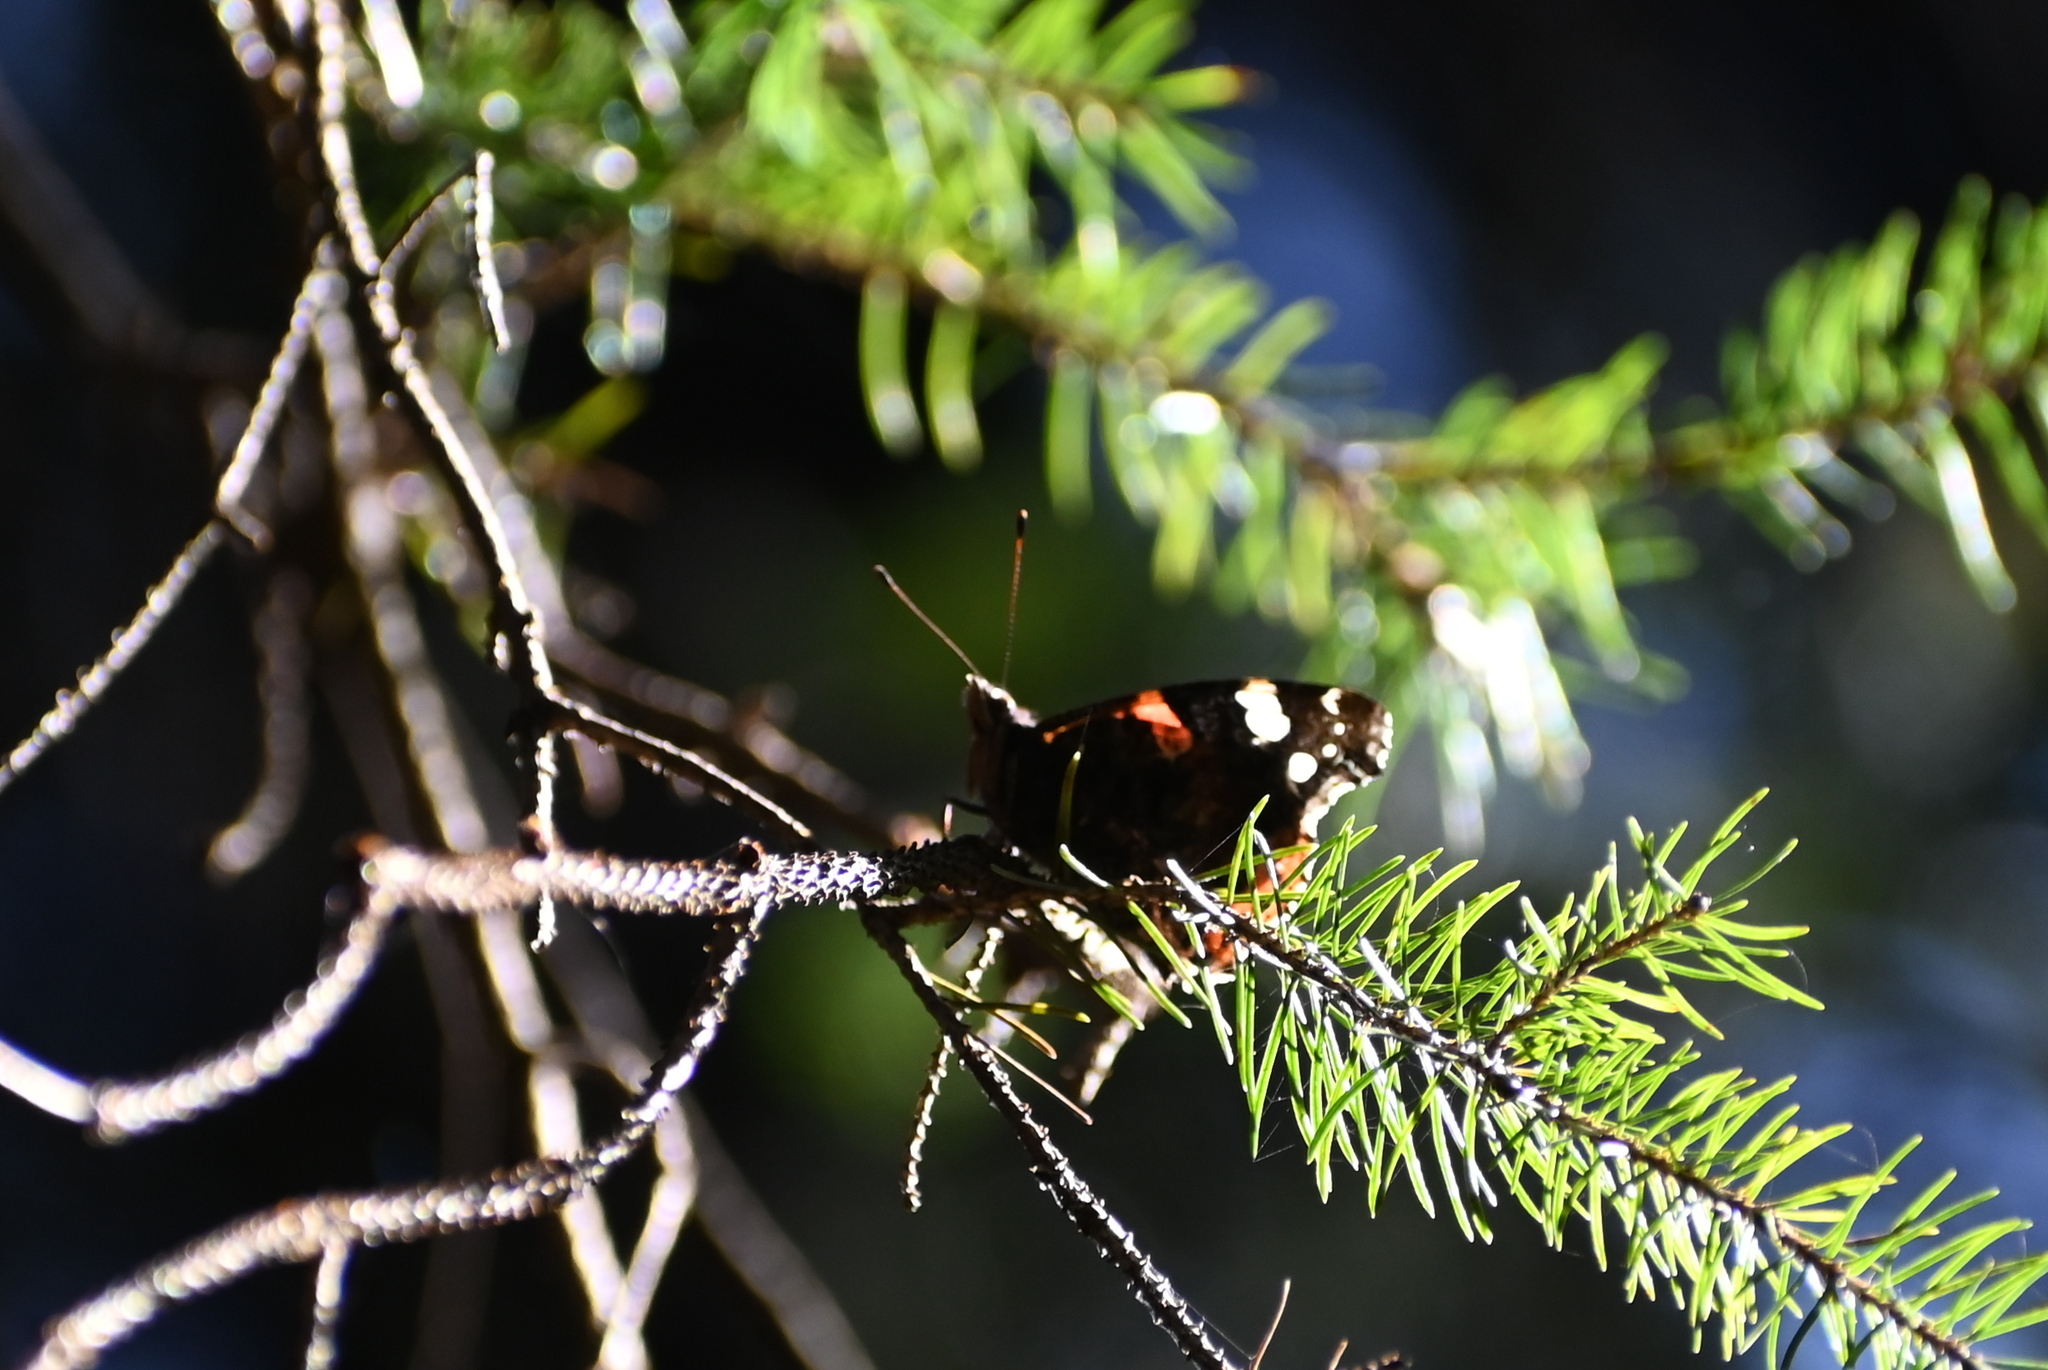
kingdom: Animalia
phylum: Arthropoda
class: Insecta
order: Lepidoptera
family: Nymphalidae
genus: Vanessa
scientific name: Vanessa atalanta
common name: Red admiral
